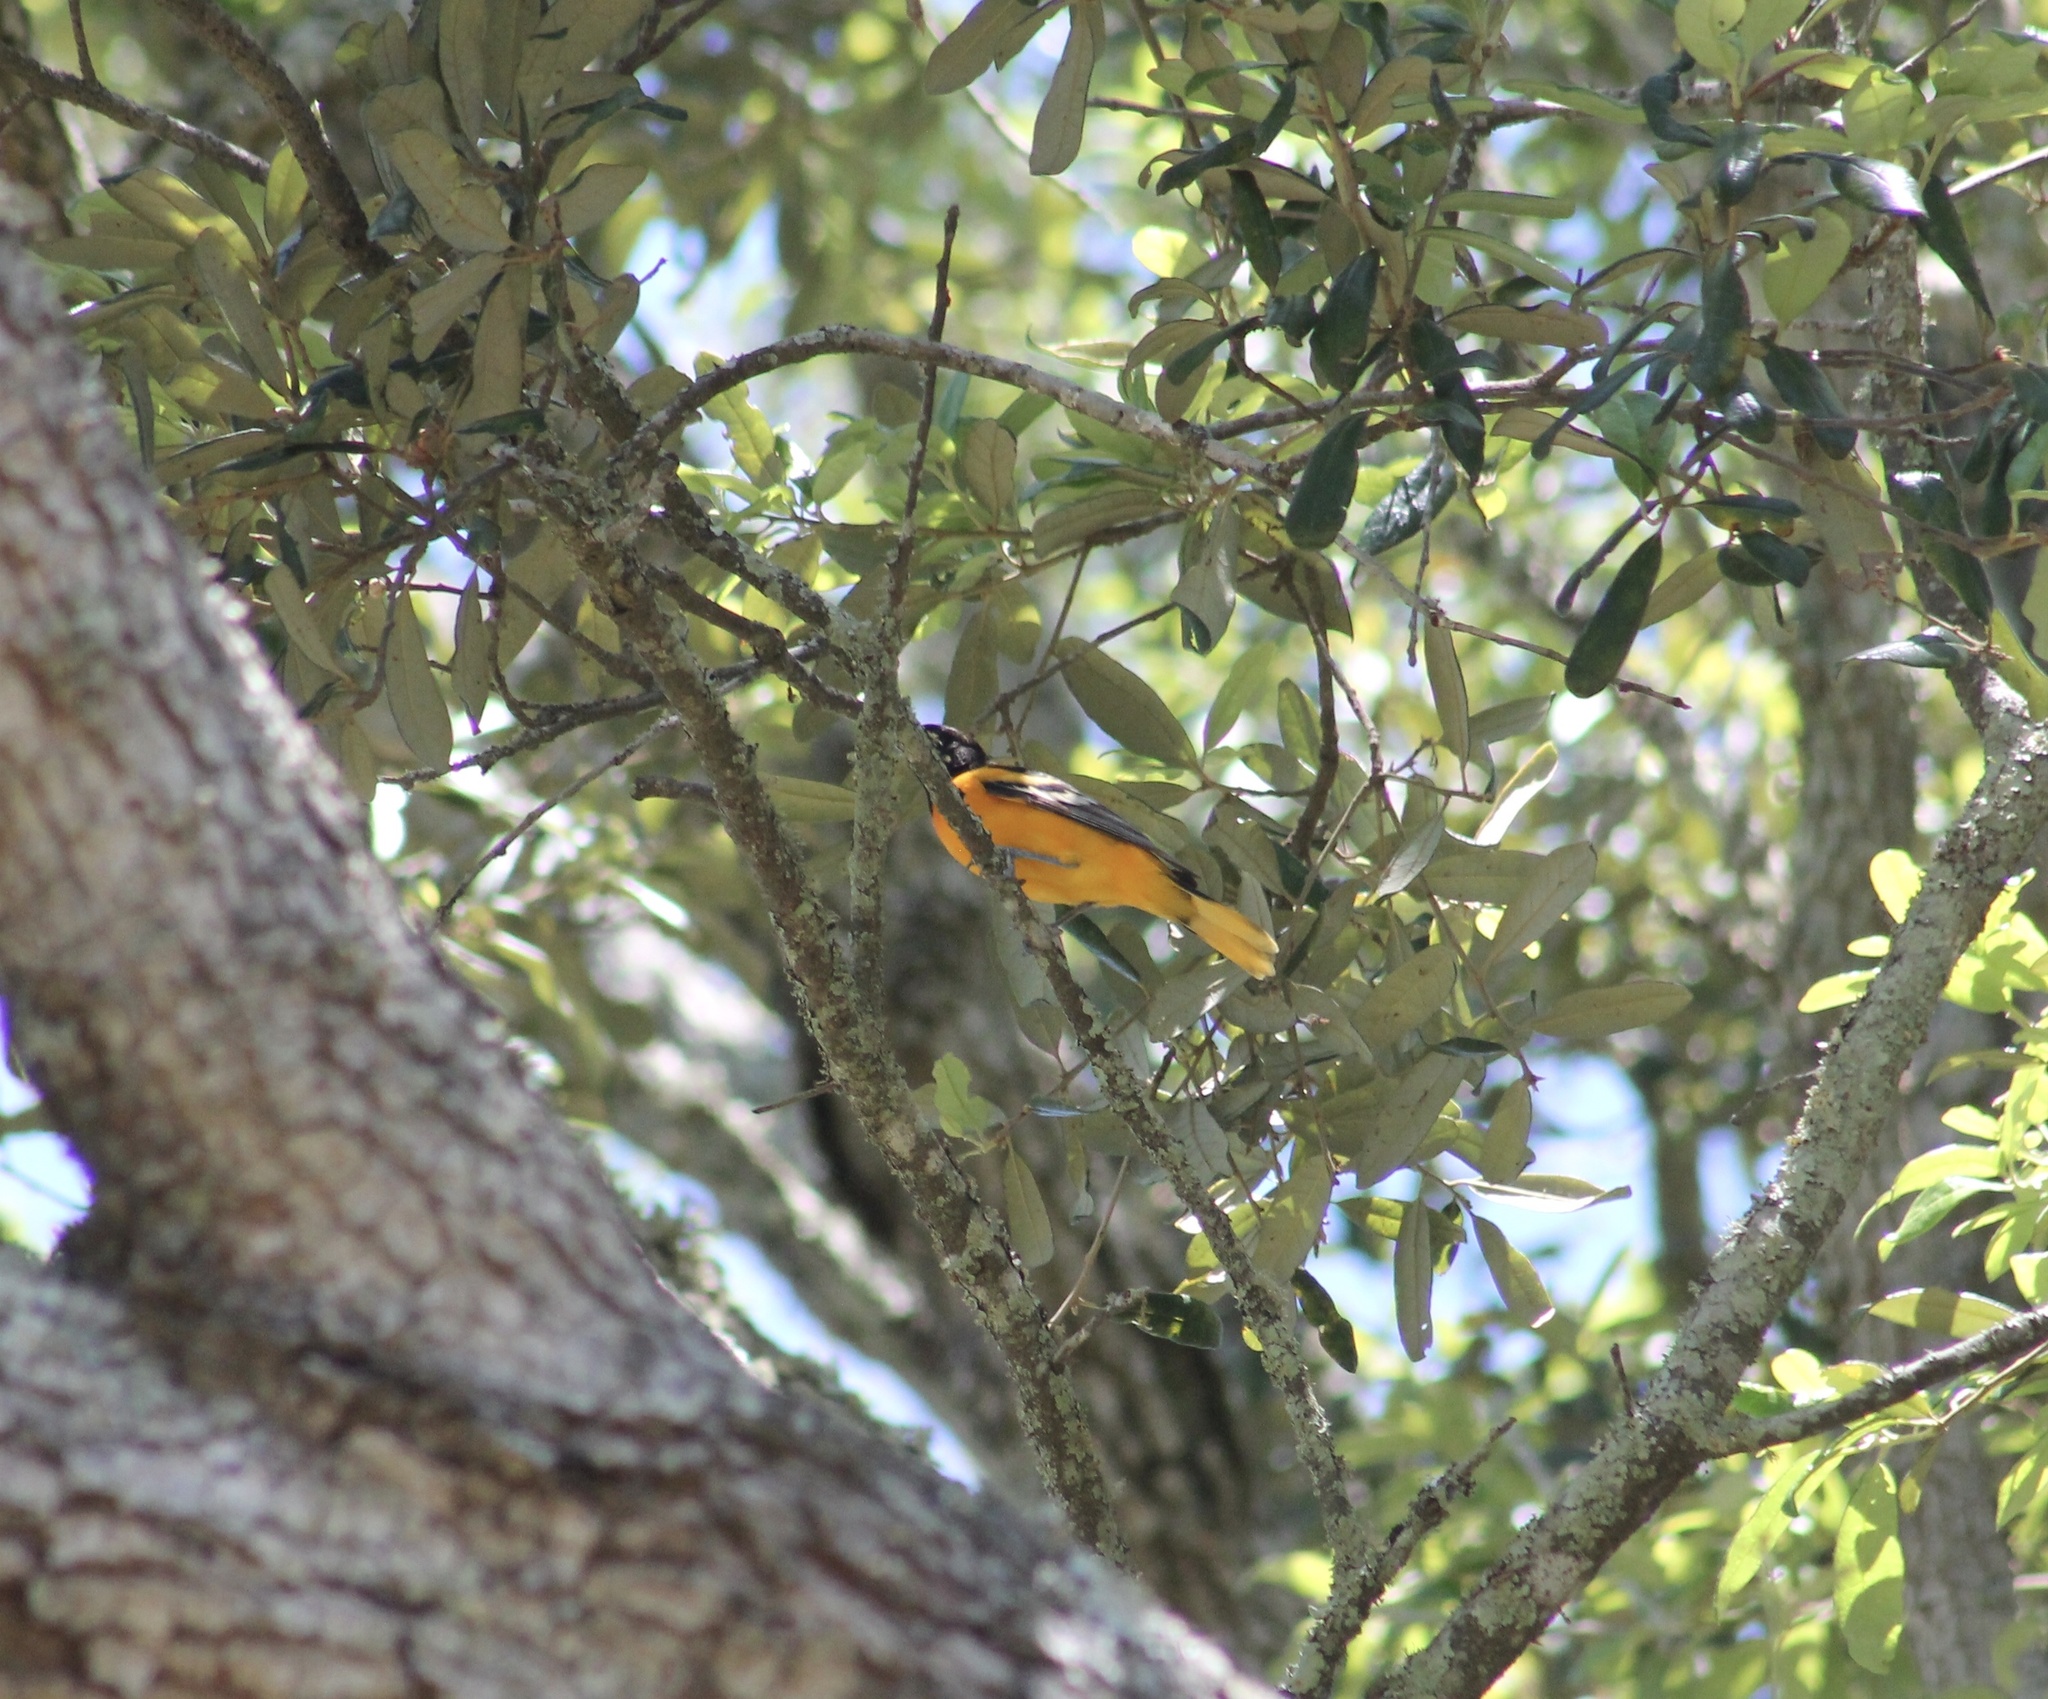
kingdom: Animalia
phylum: Chordata
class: Aves
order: Passeriformes
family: Icteridae
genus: Icterus
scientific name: Icterus galbula
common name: Baltimore oriole
